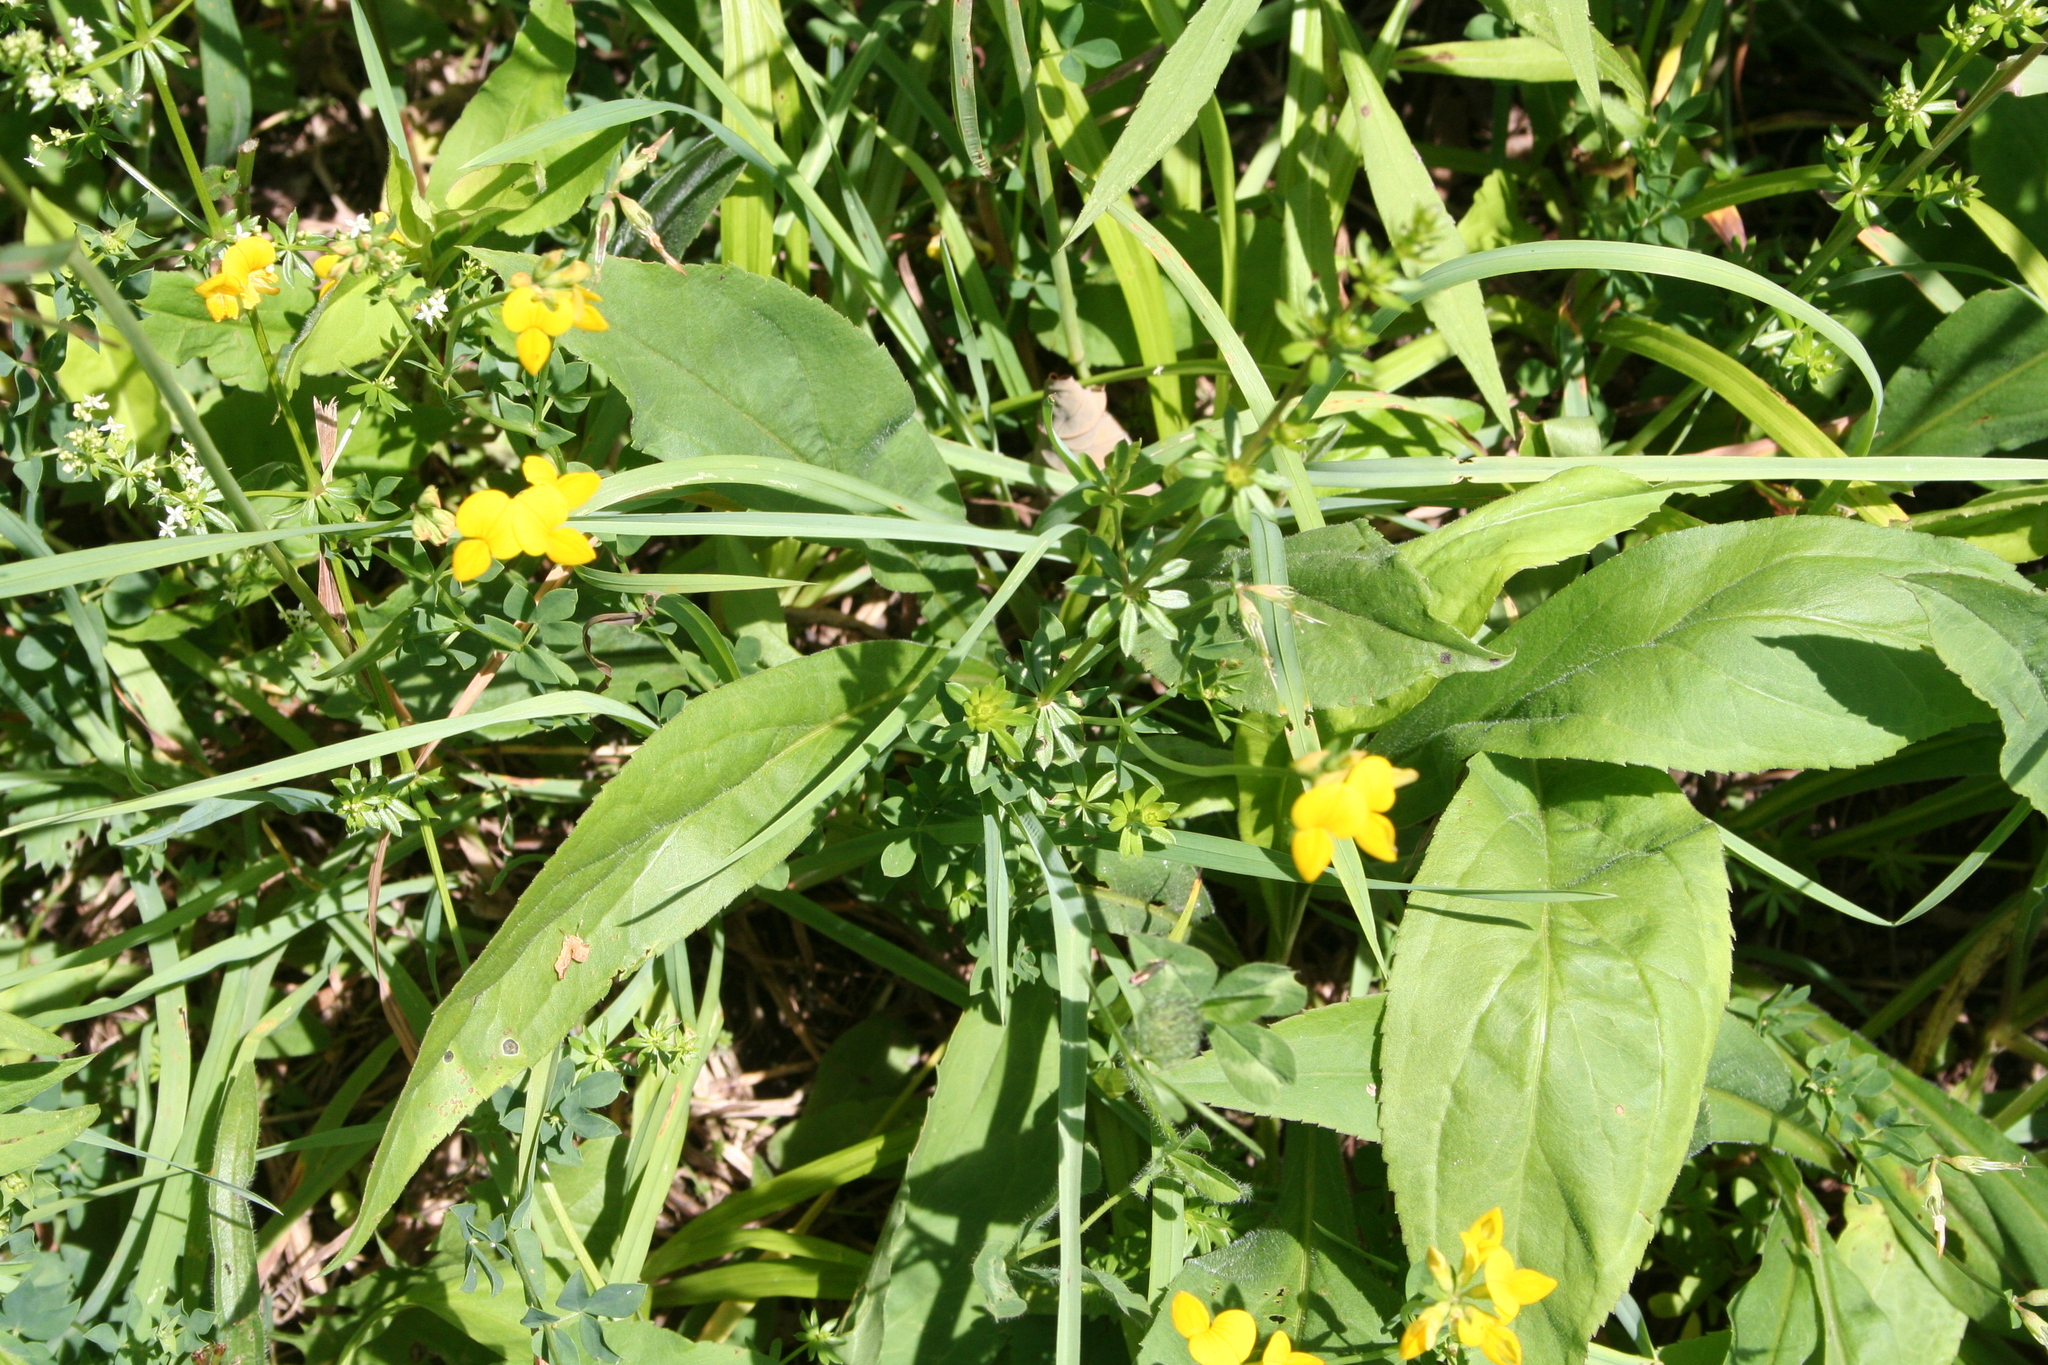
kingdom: Plantae
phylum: Tracheophyta
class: Magnoliopsida
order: Fabales
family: Fabaceae
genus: Lotus
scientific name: Lotus corniculatus
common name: Common bird's-foot-trefoil
